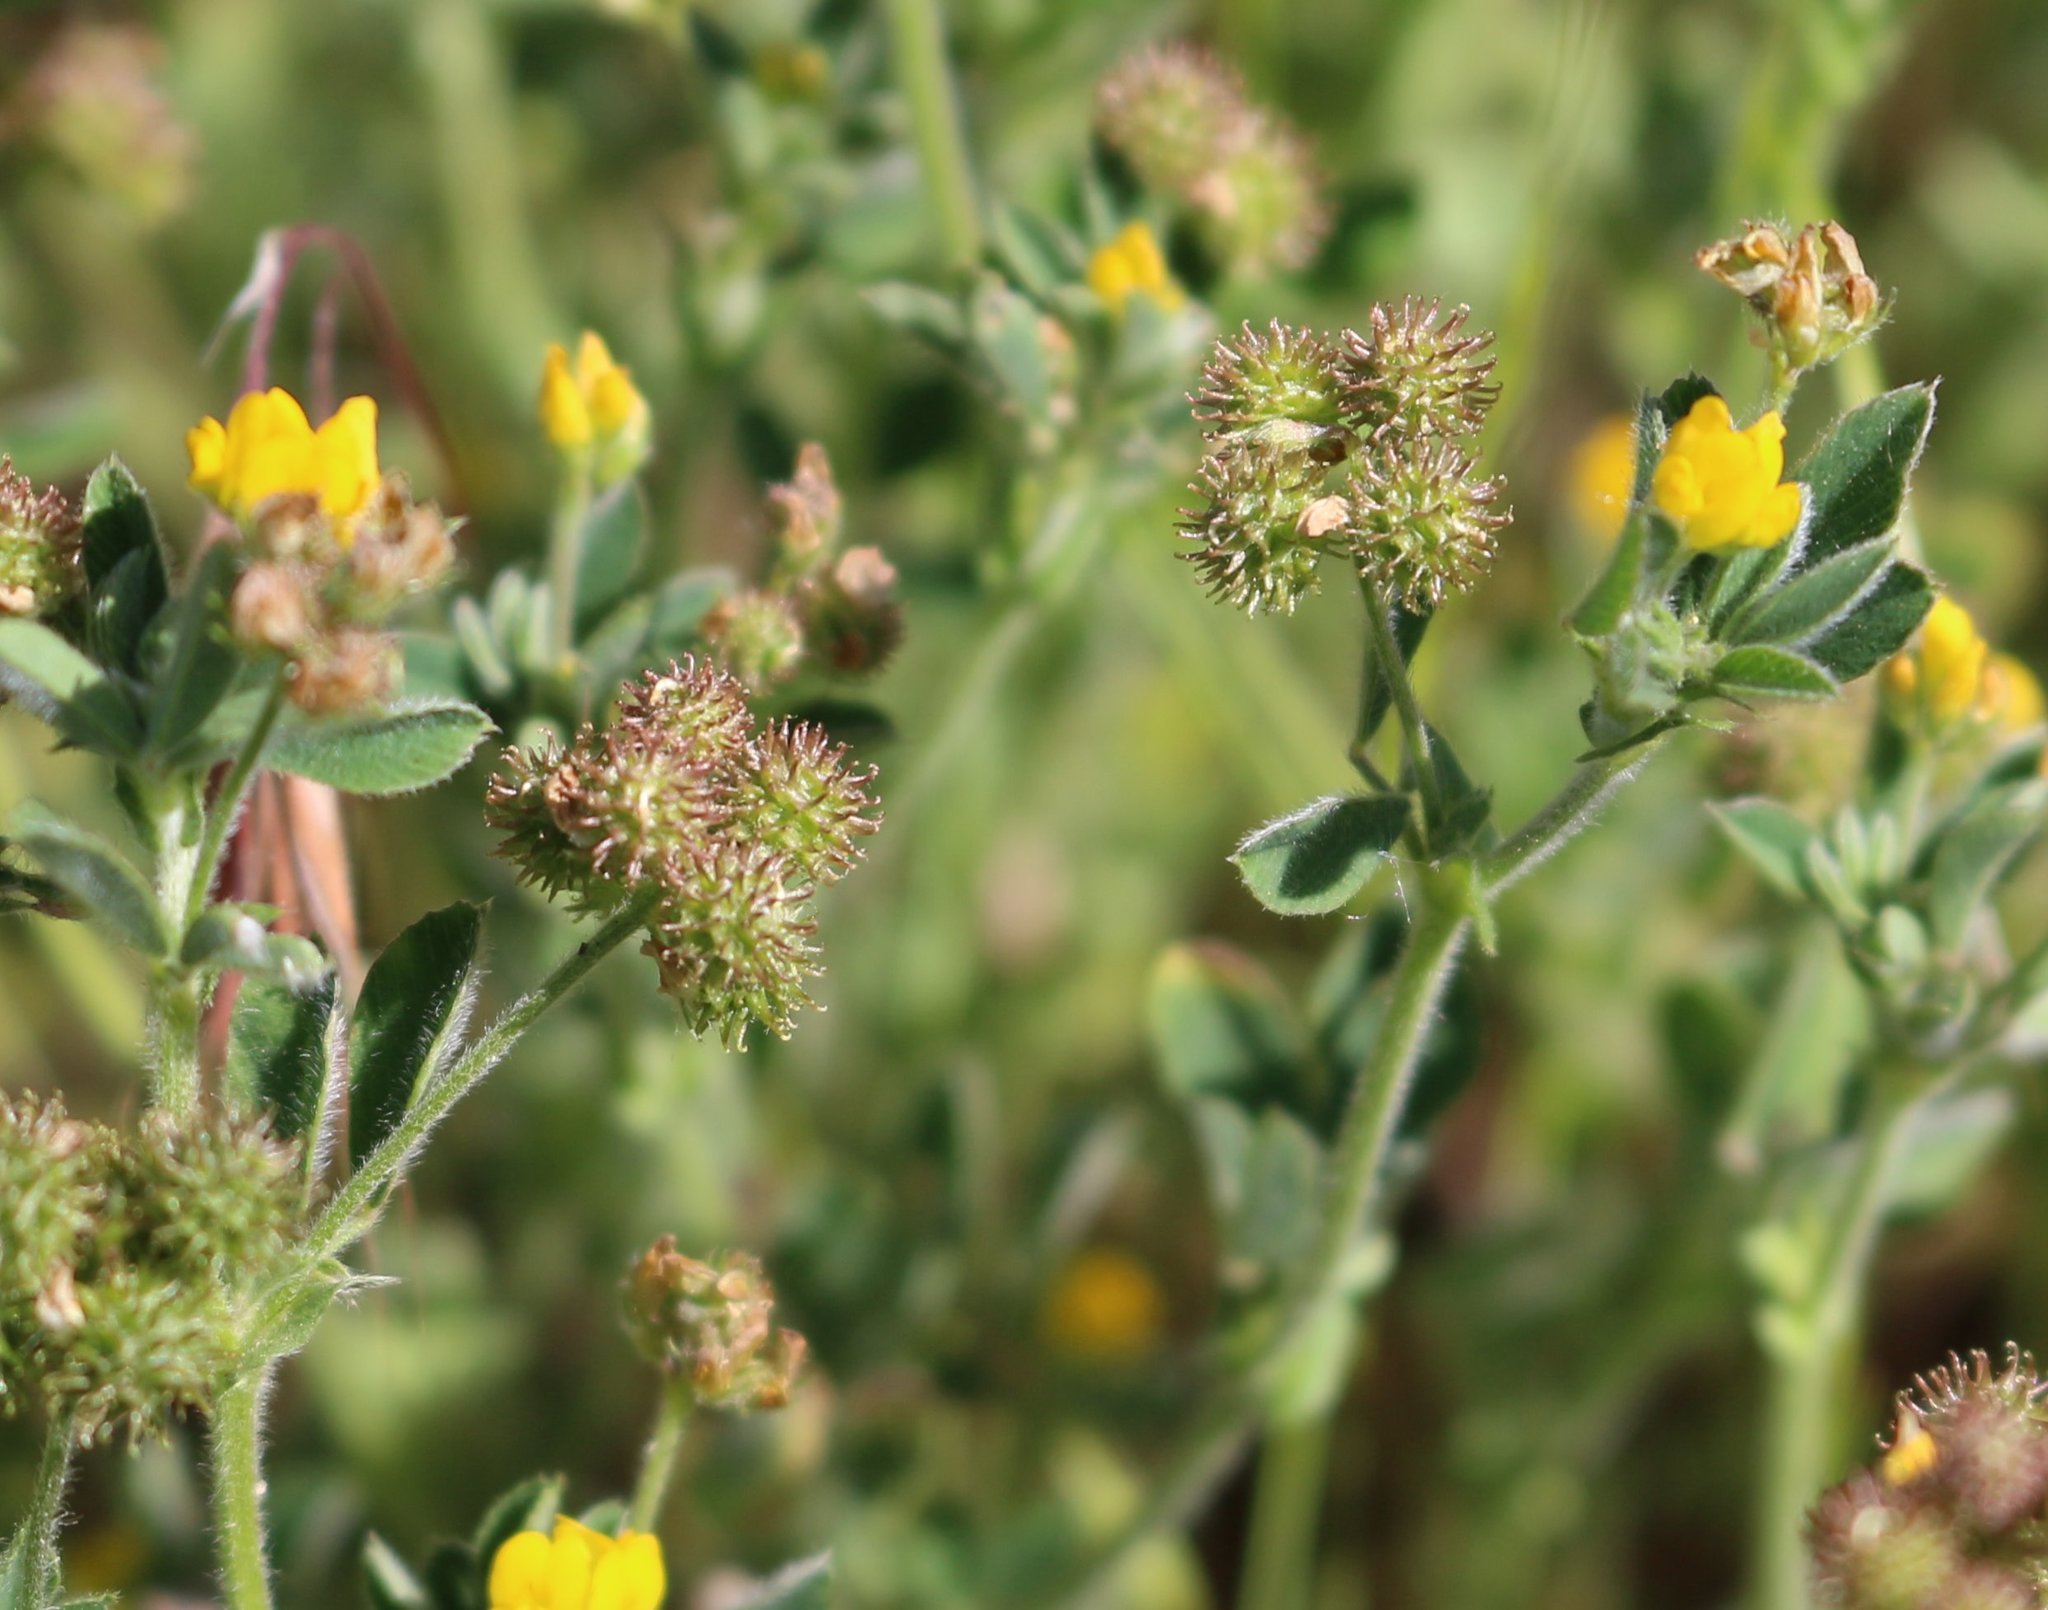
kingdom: Plantae
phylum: Tracheophyta
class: Magnoliopsida
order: Fabales
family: Fabaceae
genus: Medicago
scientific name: Medicago minima
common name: Little bur-clover
